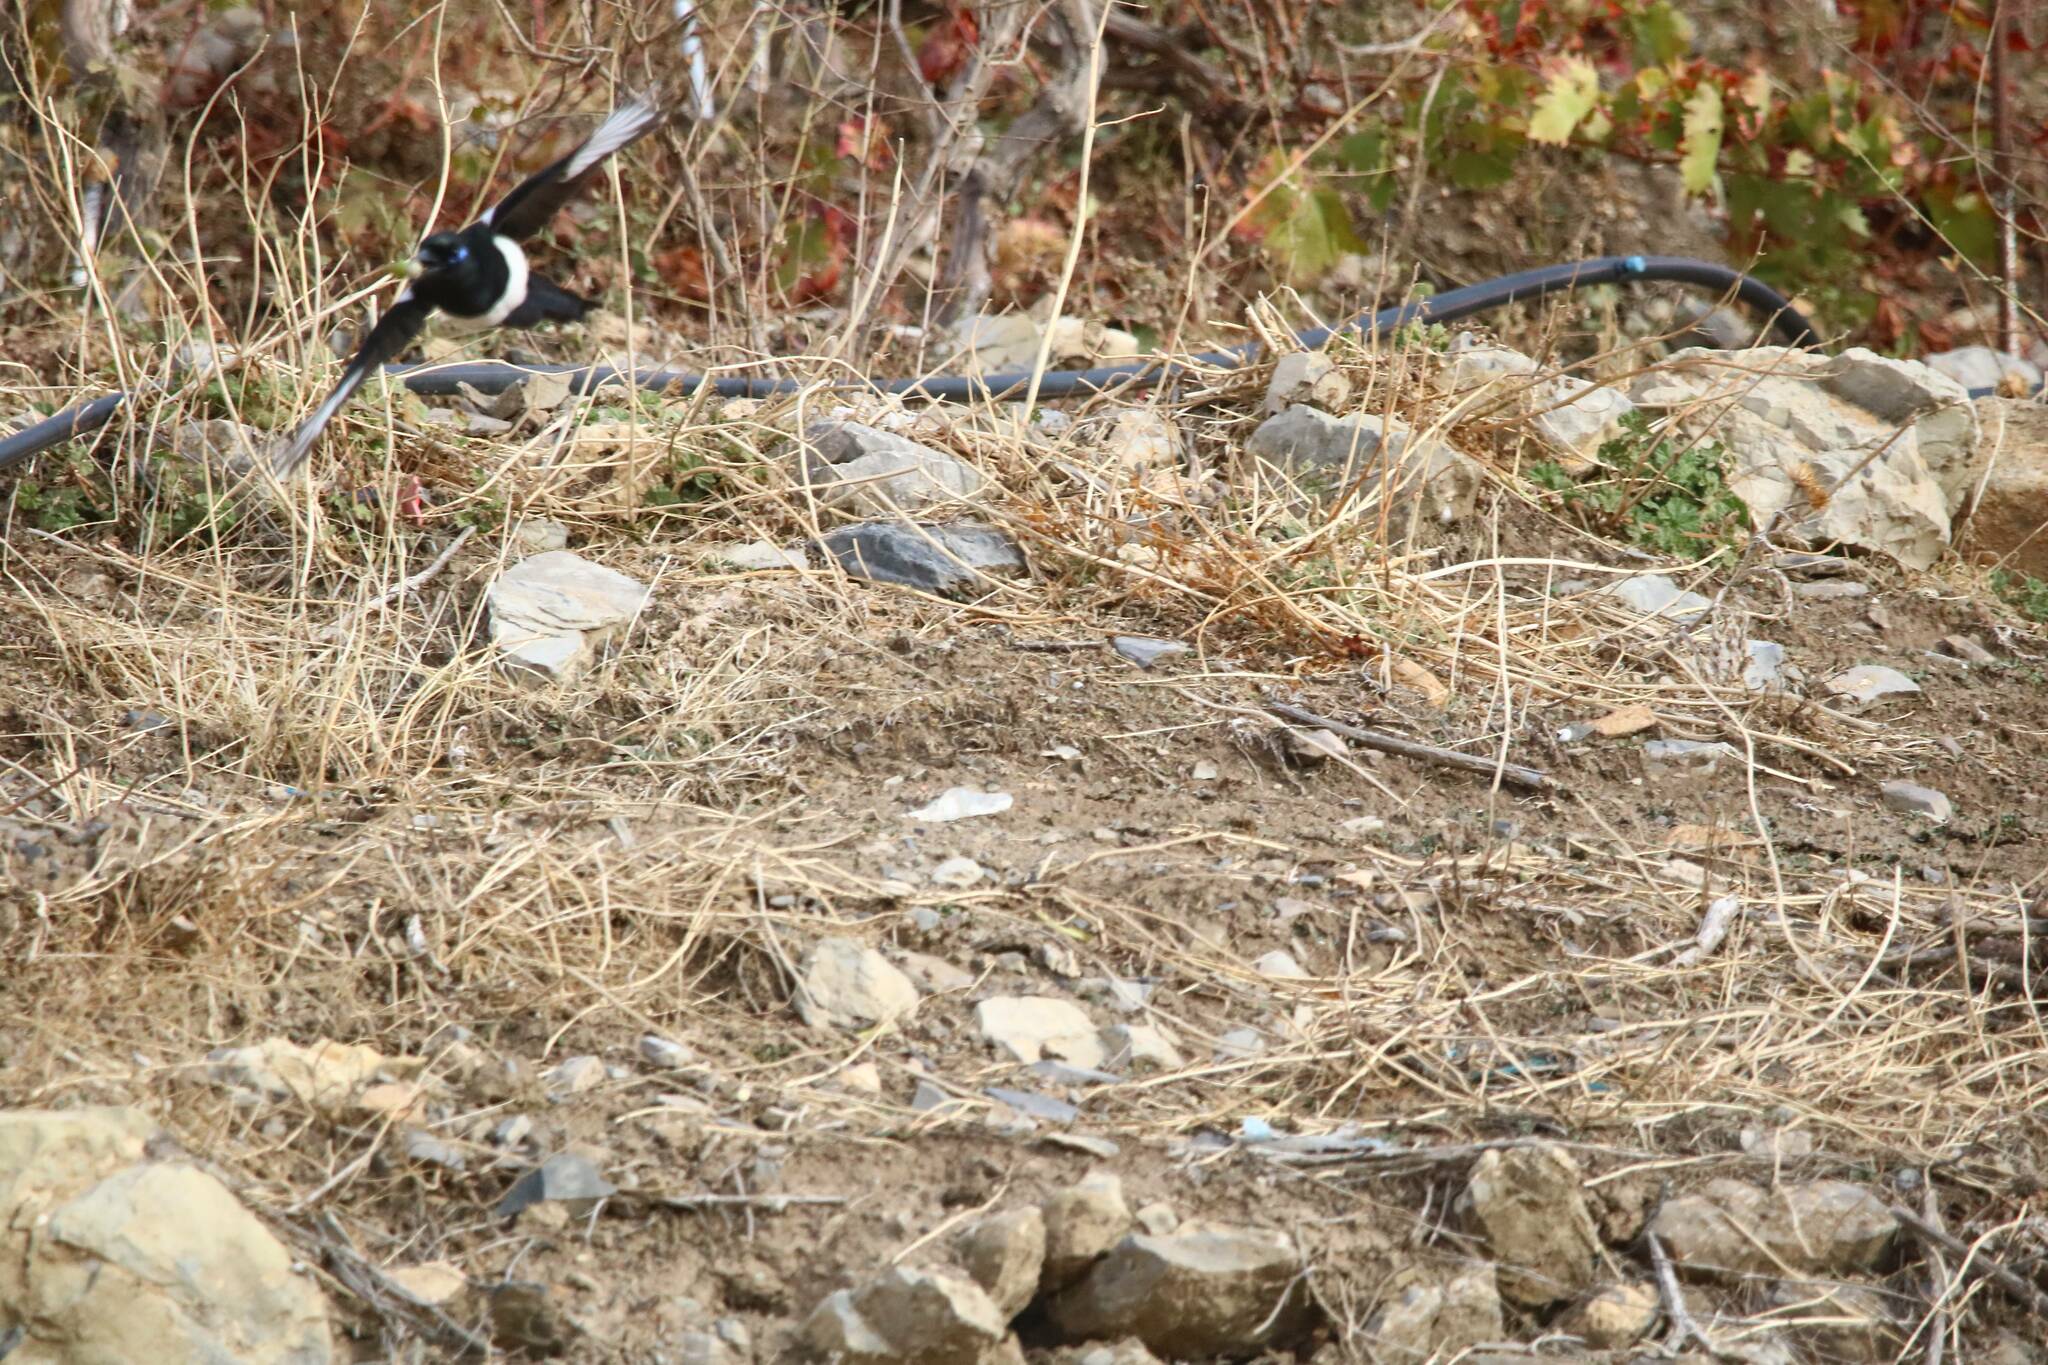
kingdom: Animalia
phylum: Chordata
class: Aves
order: Passeriformes
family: Corvidae
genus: Pica
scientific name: Pica mauritanica
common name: Maghreb magpie
